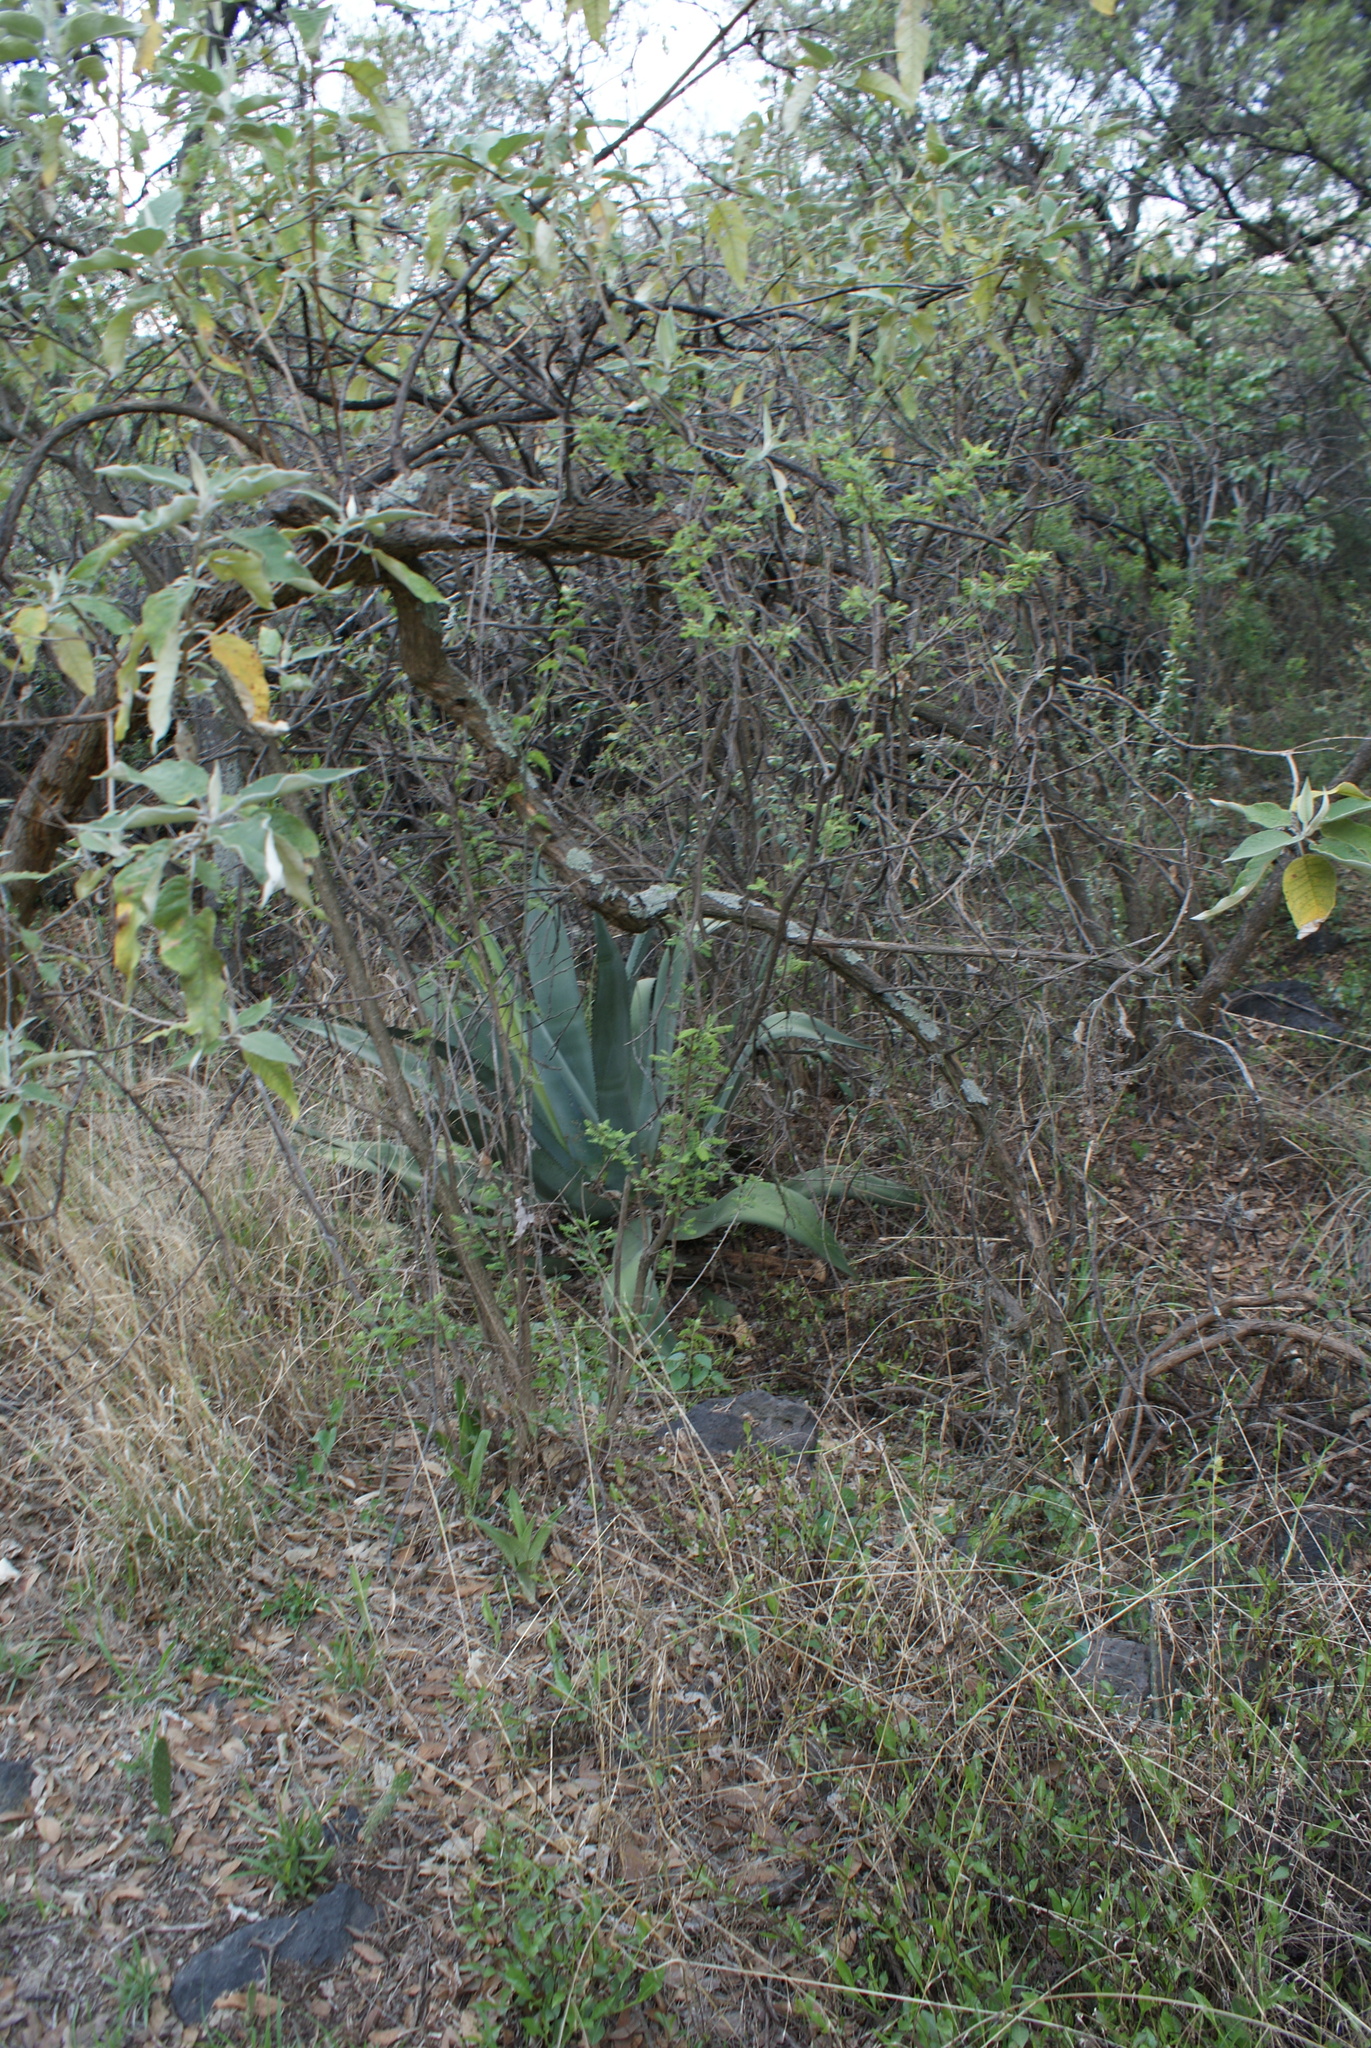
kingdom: Plantae
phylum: Tracheophyta
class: Magnoliopsida
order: Fabales
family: Fabaceae
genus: Eysenhardtia
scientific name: Eysenhardtia polystachya
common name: Kidneywood
